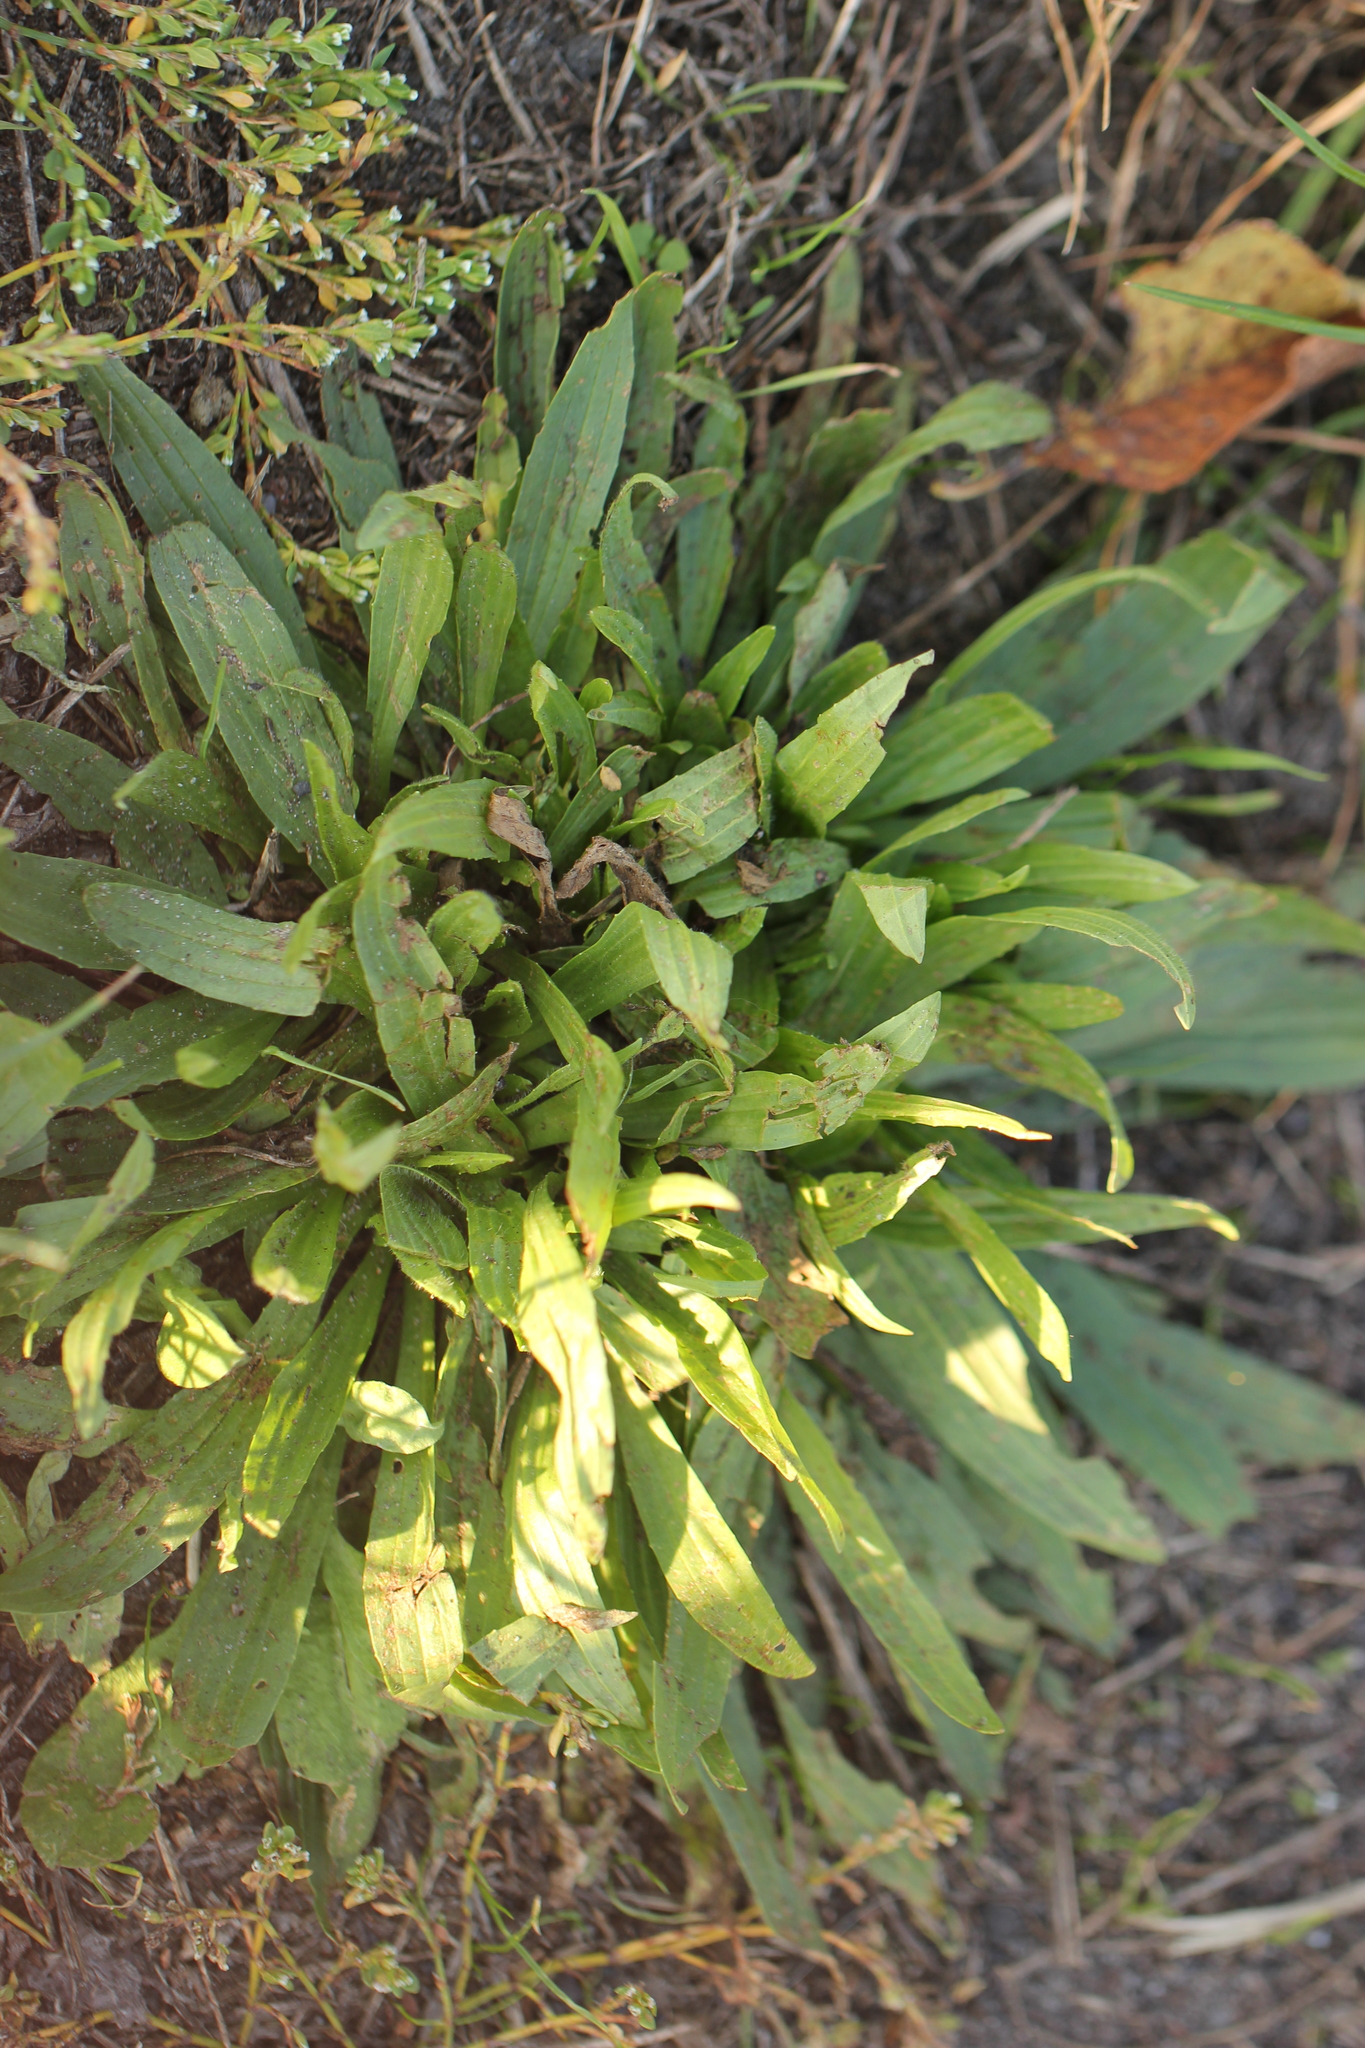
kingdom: Plantae
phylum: Tracheophyta
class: Magnoliopsida
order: Lamiales
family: Plantaginaceae
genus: Plantago
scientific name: Plantago lanceolata
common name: Ribwort plantain
